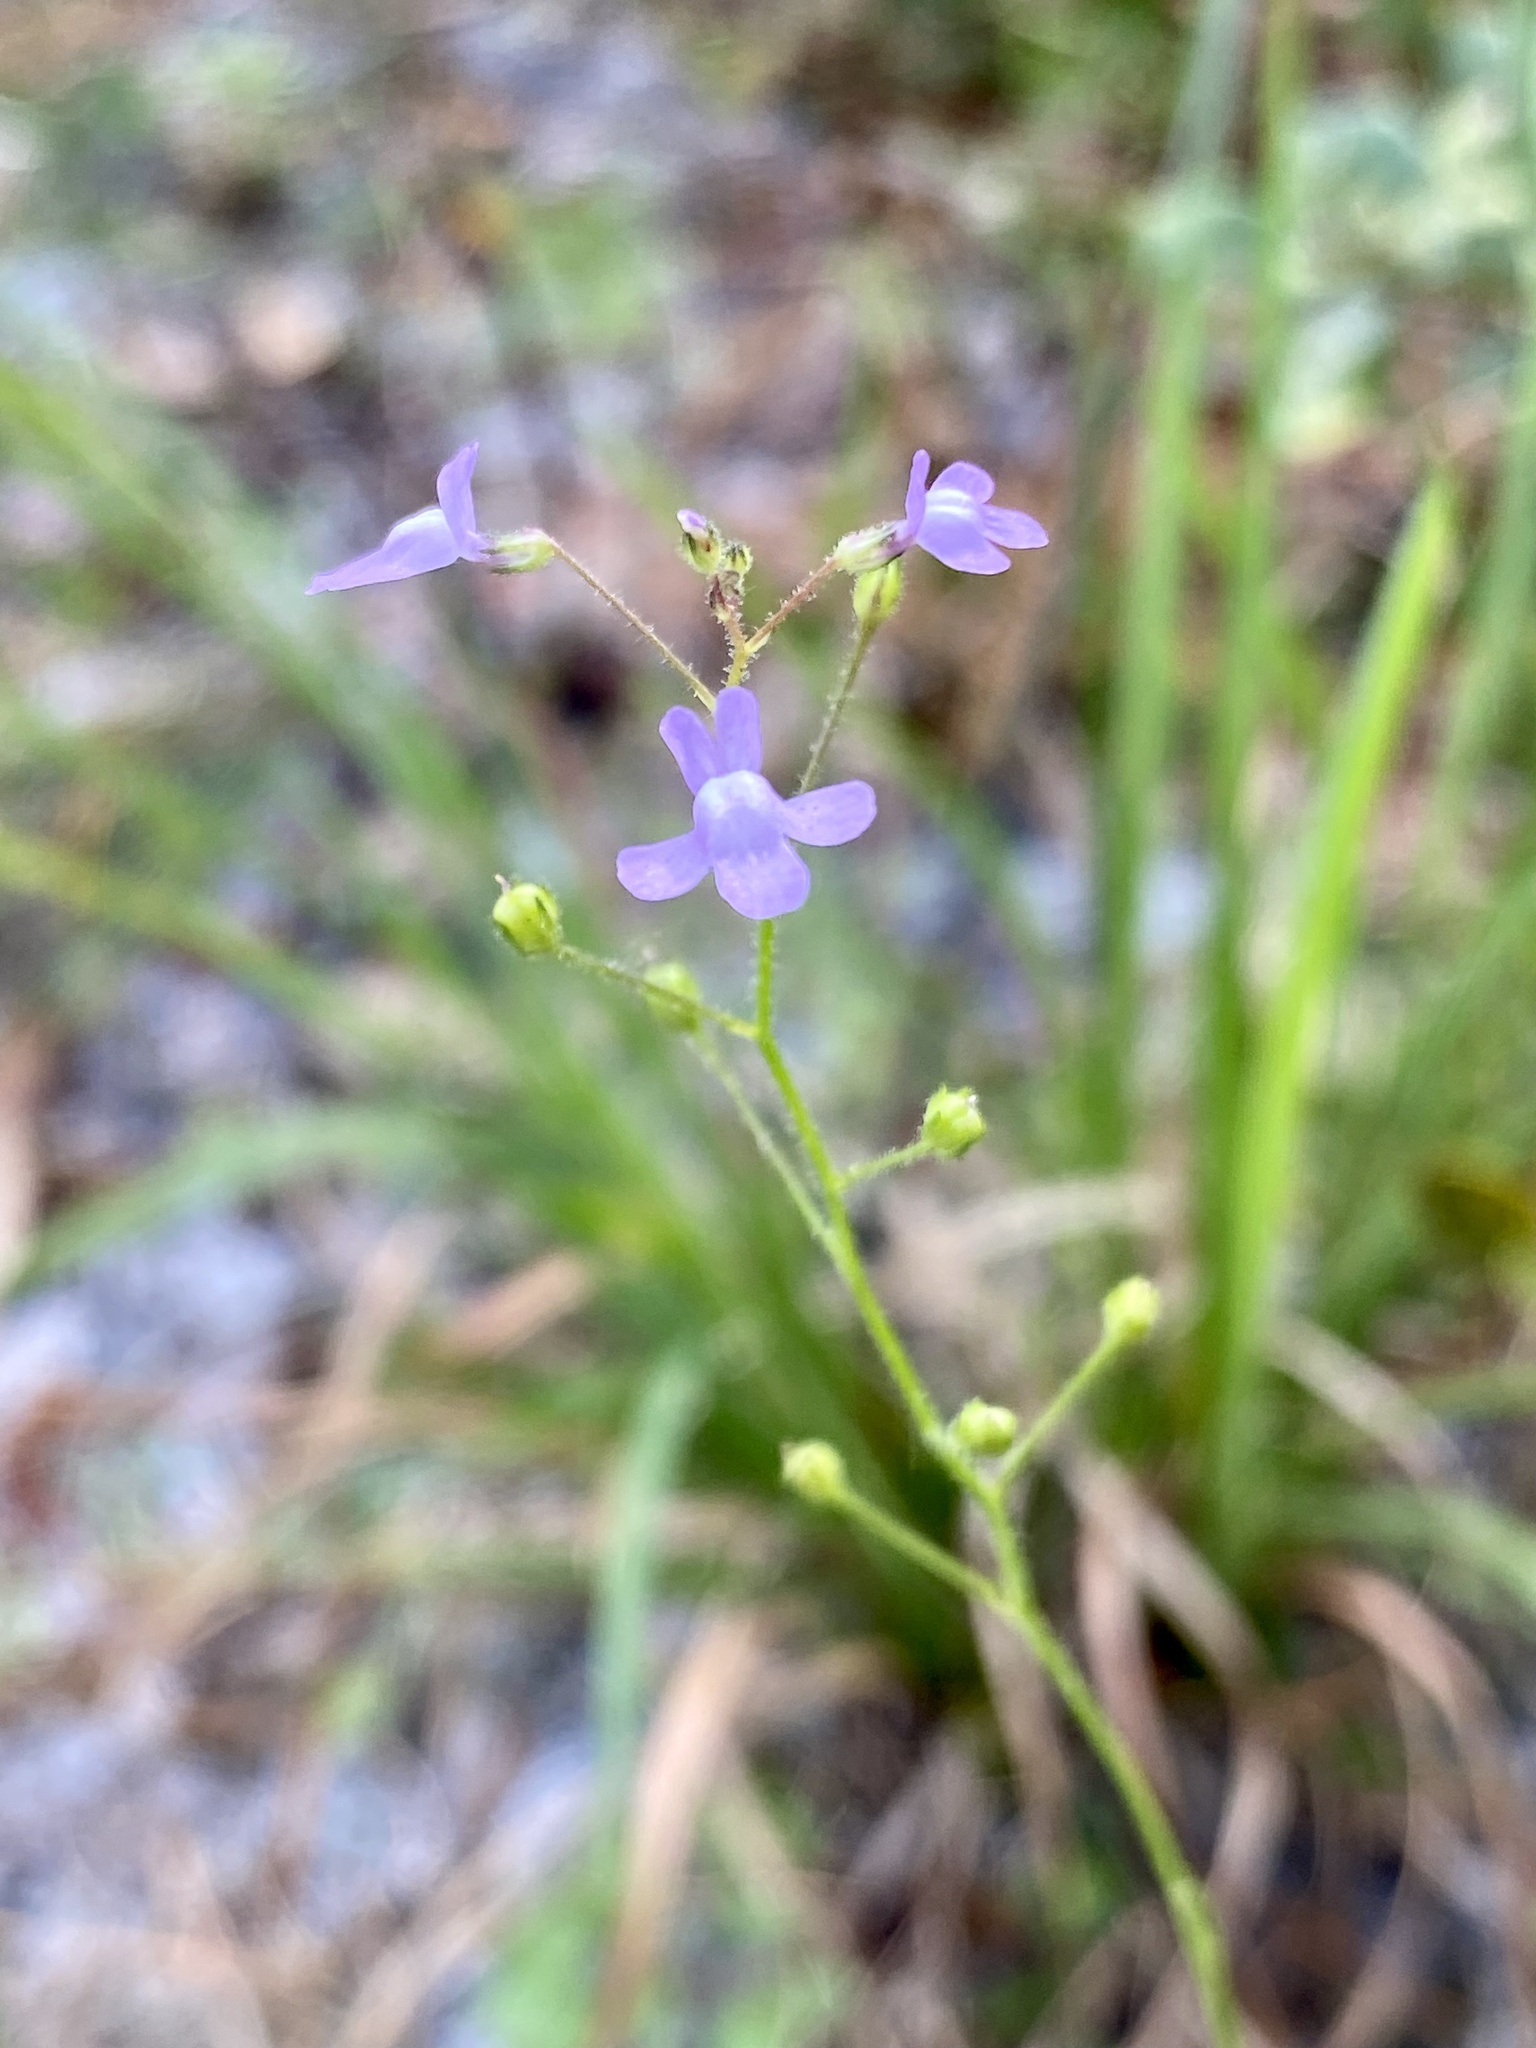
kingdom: Plantae
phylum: Tracheophyta
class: Magnoliopsida
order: Lamiales
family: Plantaginaceae
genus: Nuttallanthus
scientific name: Nuttallanthus floridanus
